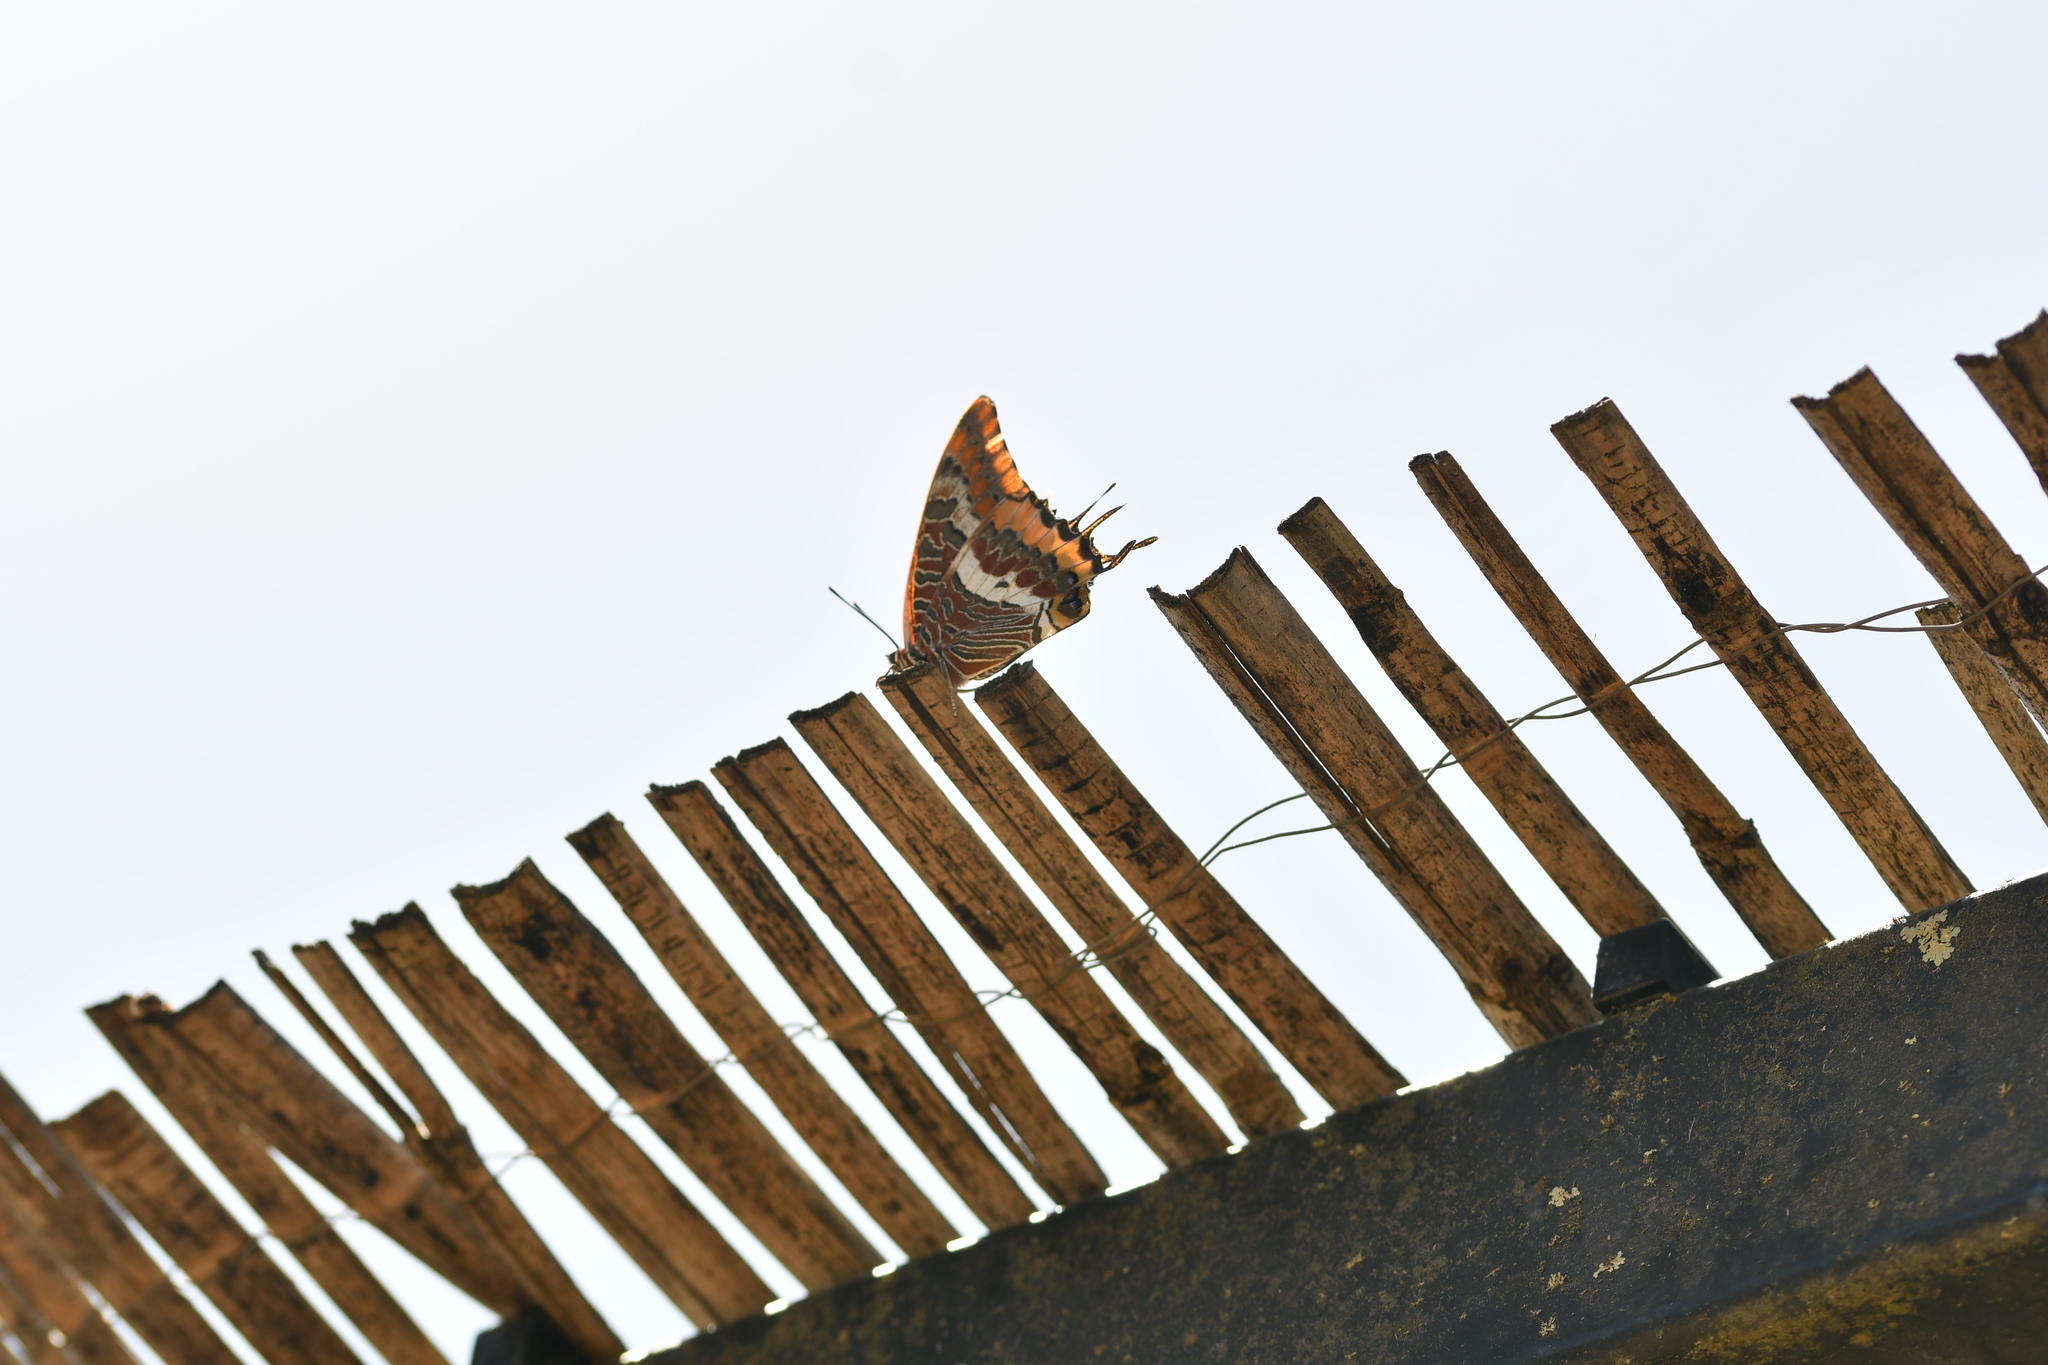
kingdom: Animalia
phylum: Arthropoda
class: Insecta
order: Lepidoptera
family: Nymphalidae
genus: Charaxes
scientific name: Charaxes jasius
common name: Two tailed pasha
